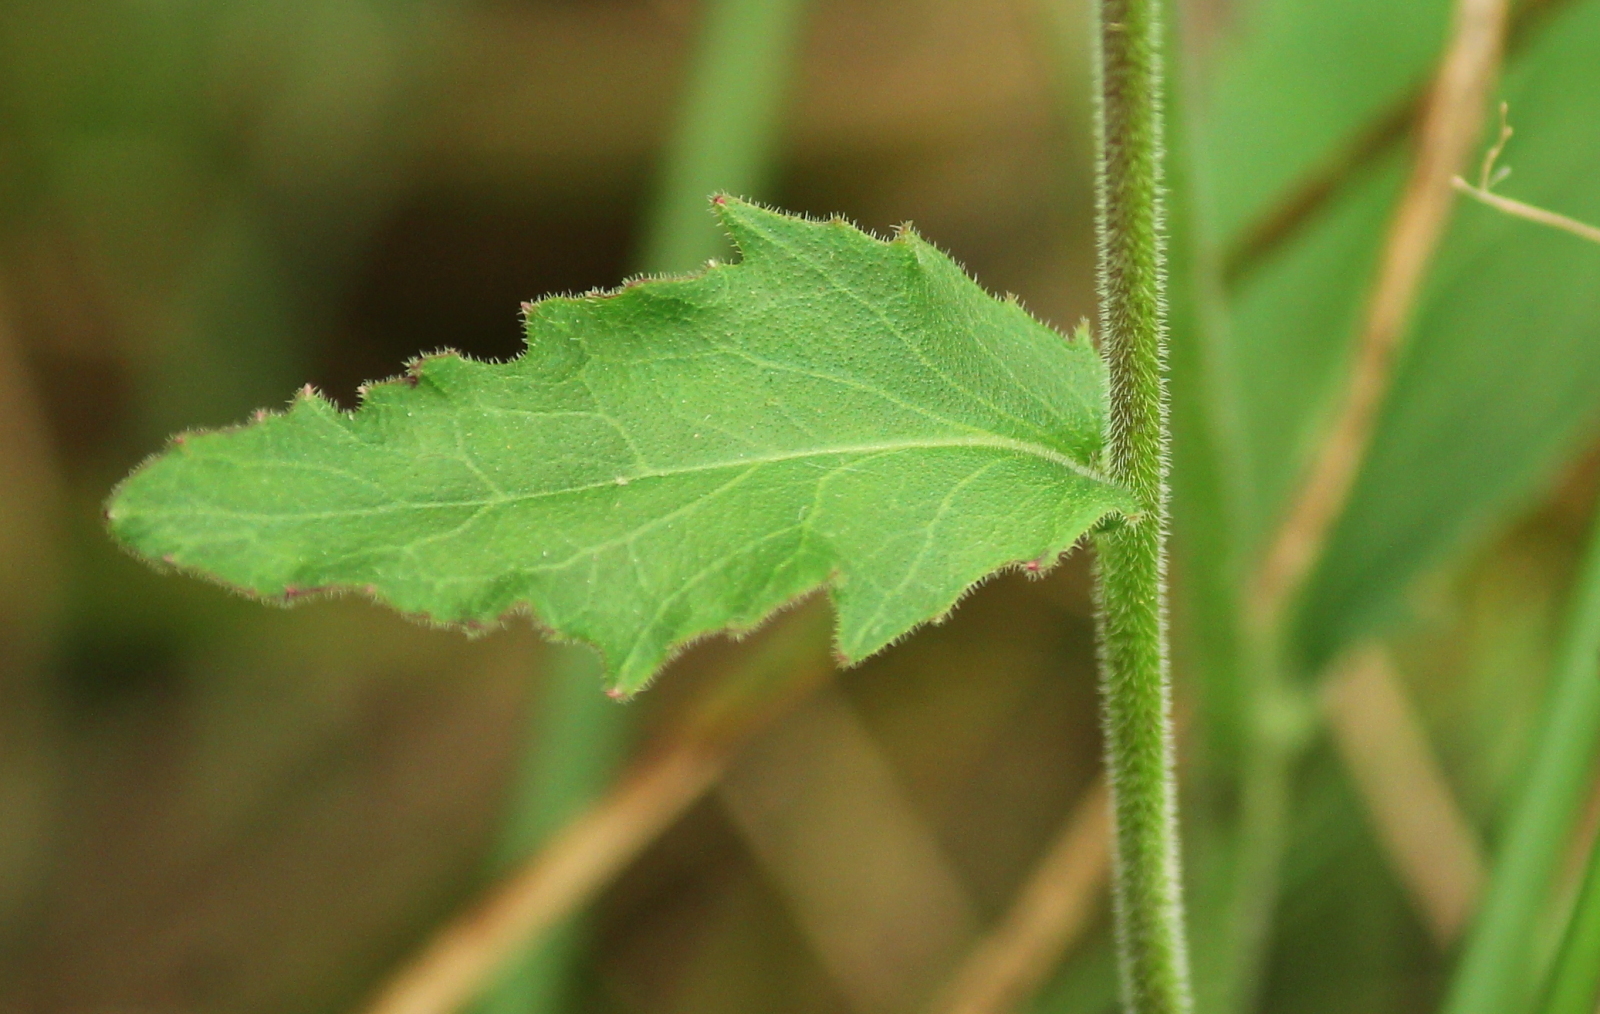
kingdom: Plantae
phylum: Tracheophyta
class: Magnoliopsida
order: Asterales
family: Campanulaceae
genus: Lobelia
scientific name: Lobelia puberula
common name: Purple dewdrop
